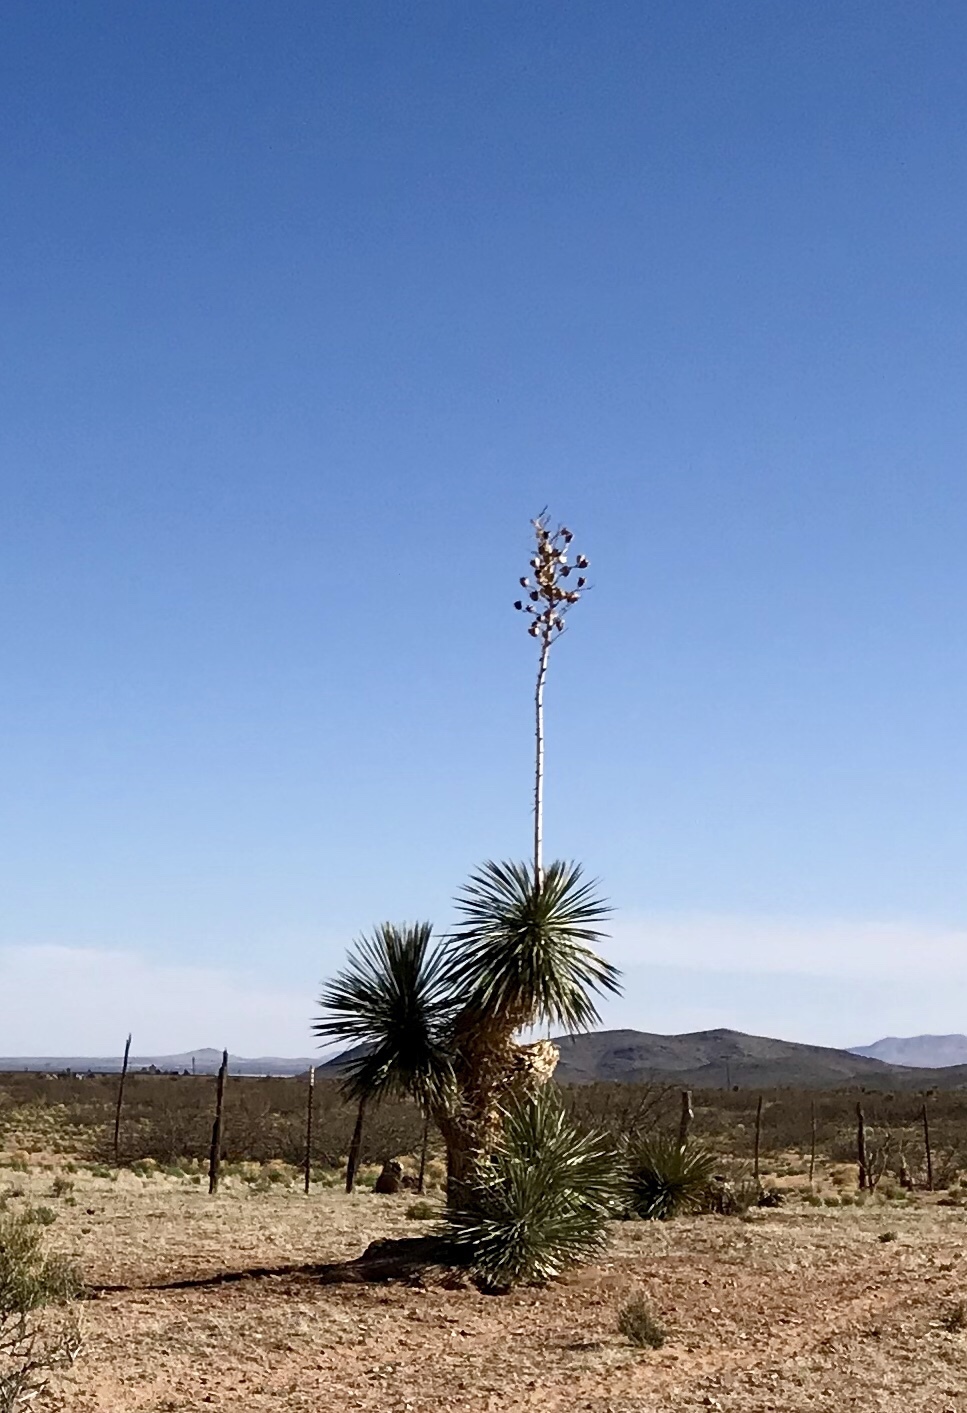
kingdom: Plantae
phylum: Tracheophyta
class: Liliopsida
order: Asparagales
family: Asparagaceae
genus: Yucca
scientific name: Yucca elata
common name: Palmella
